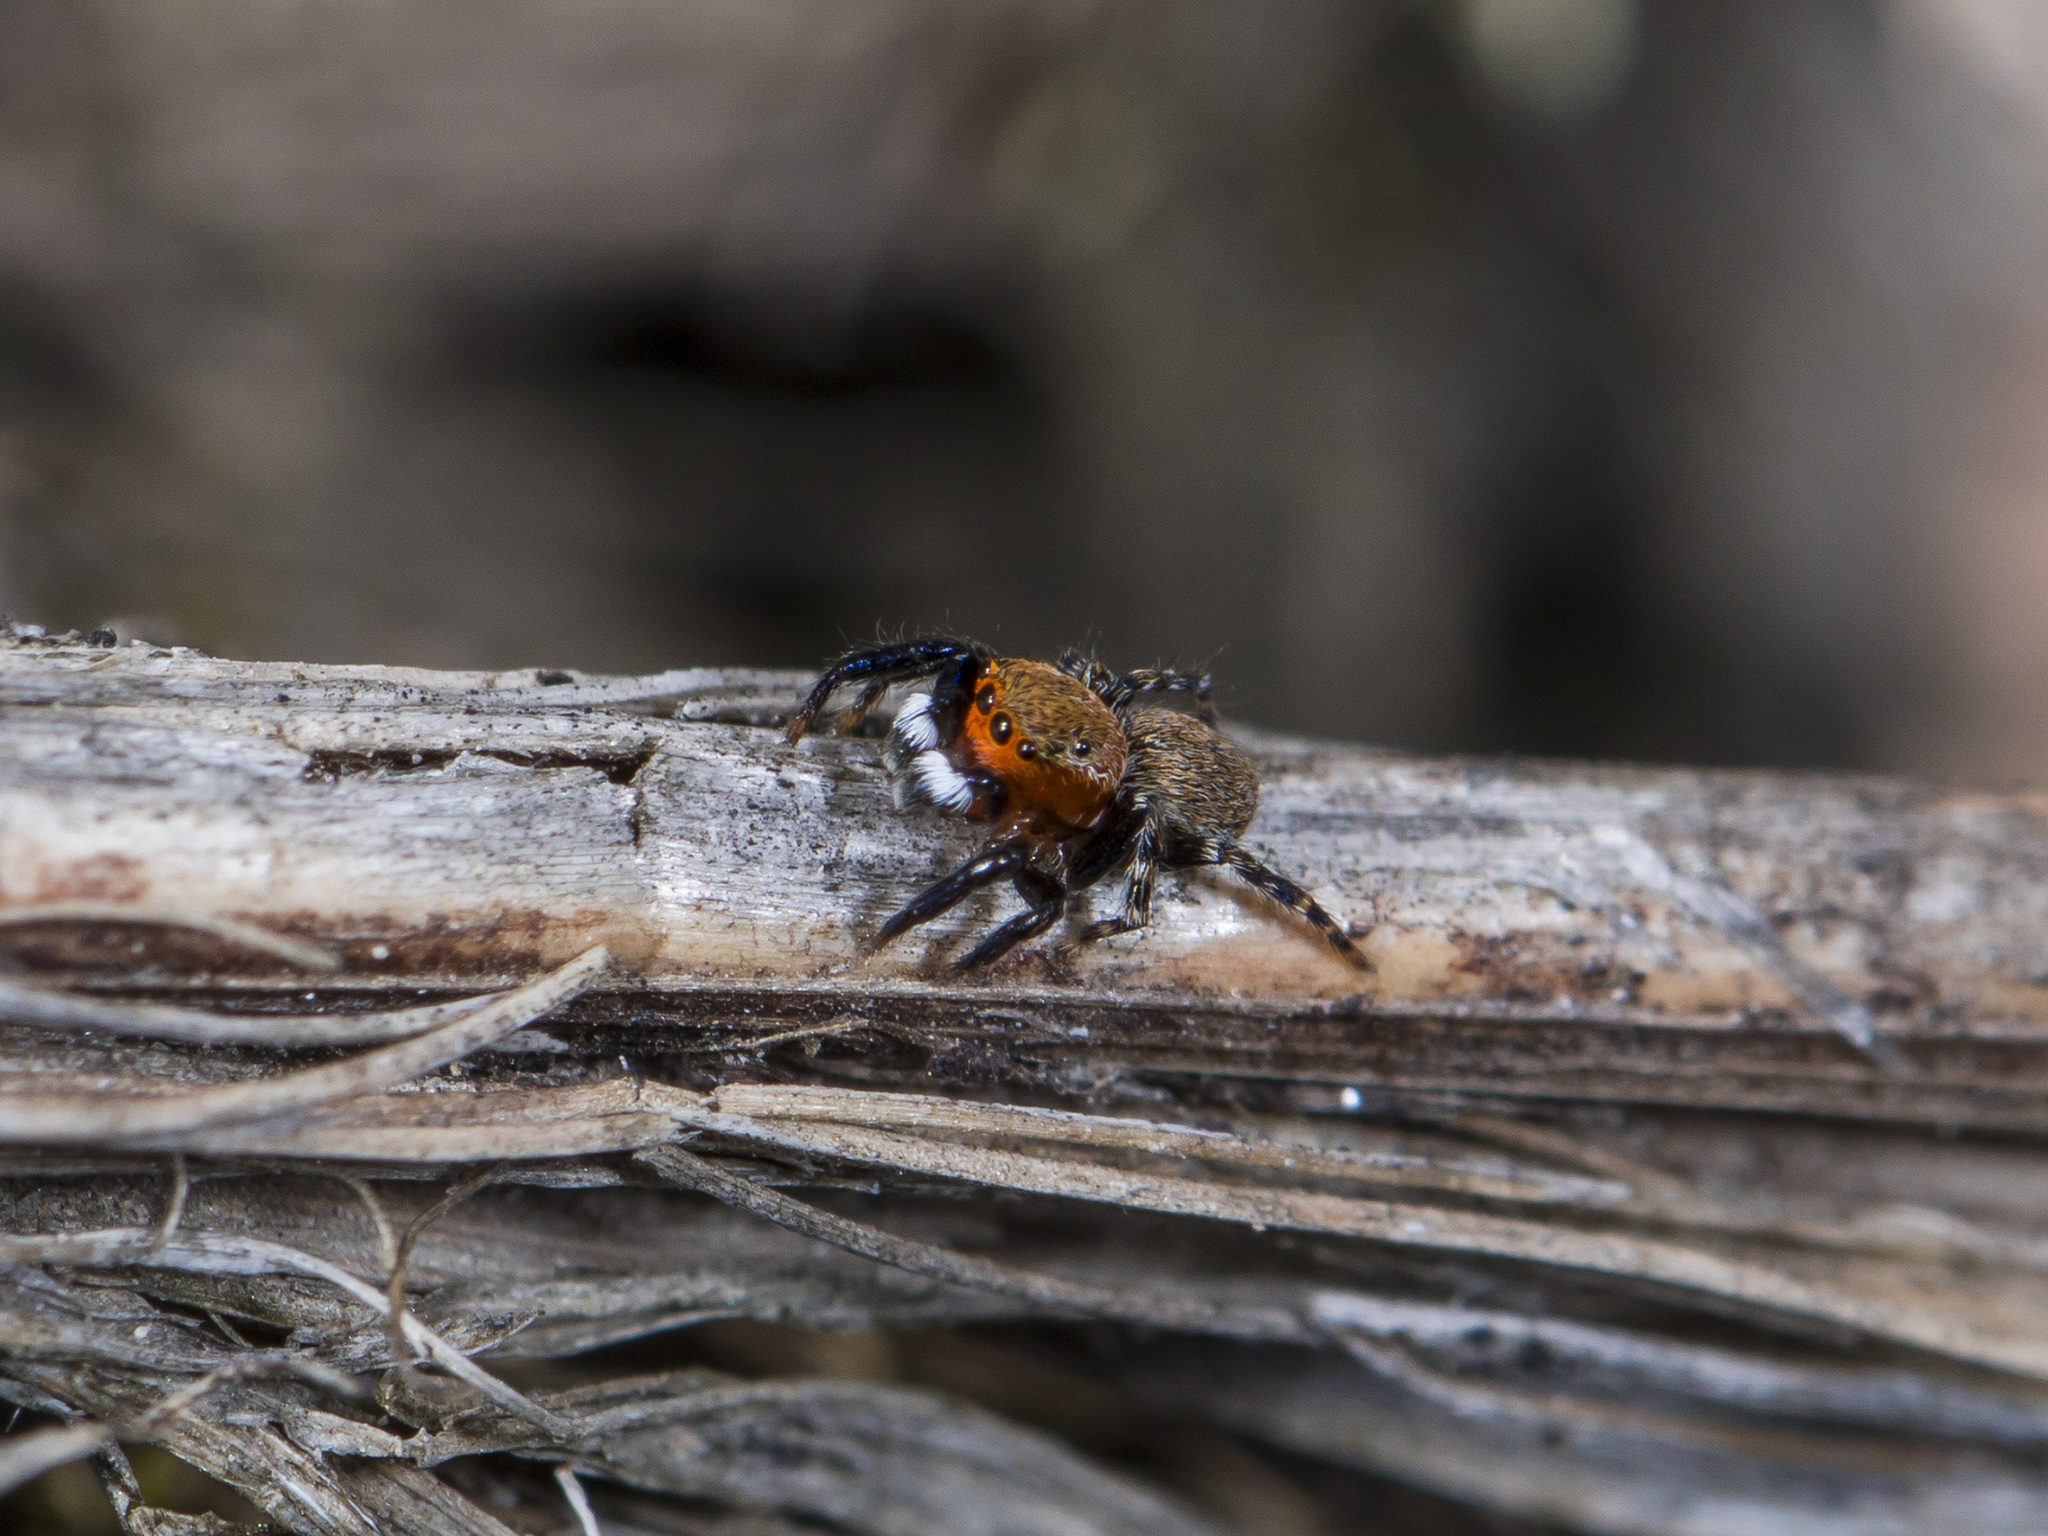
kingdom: Animalia
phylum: Arthropoda
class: Arachnida
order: Araneae
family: Salticidae
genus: Talavera
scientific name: Talavera petrensis
